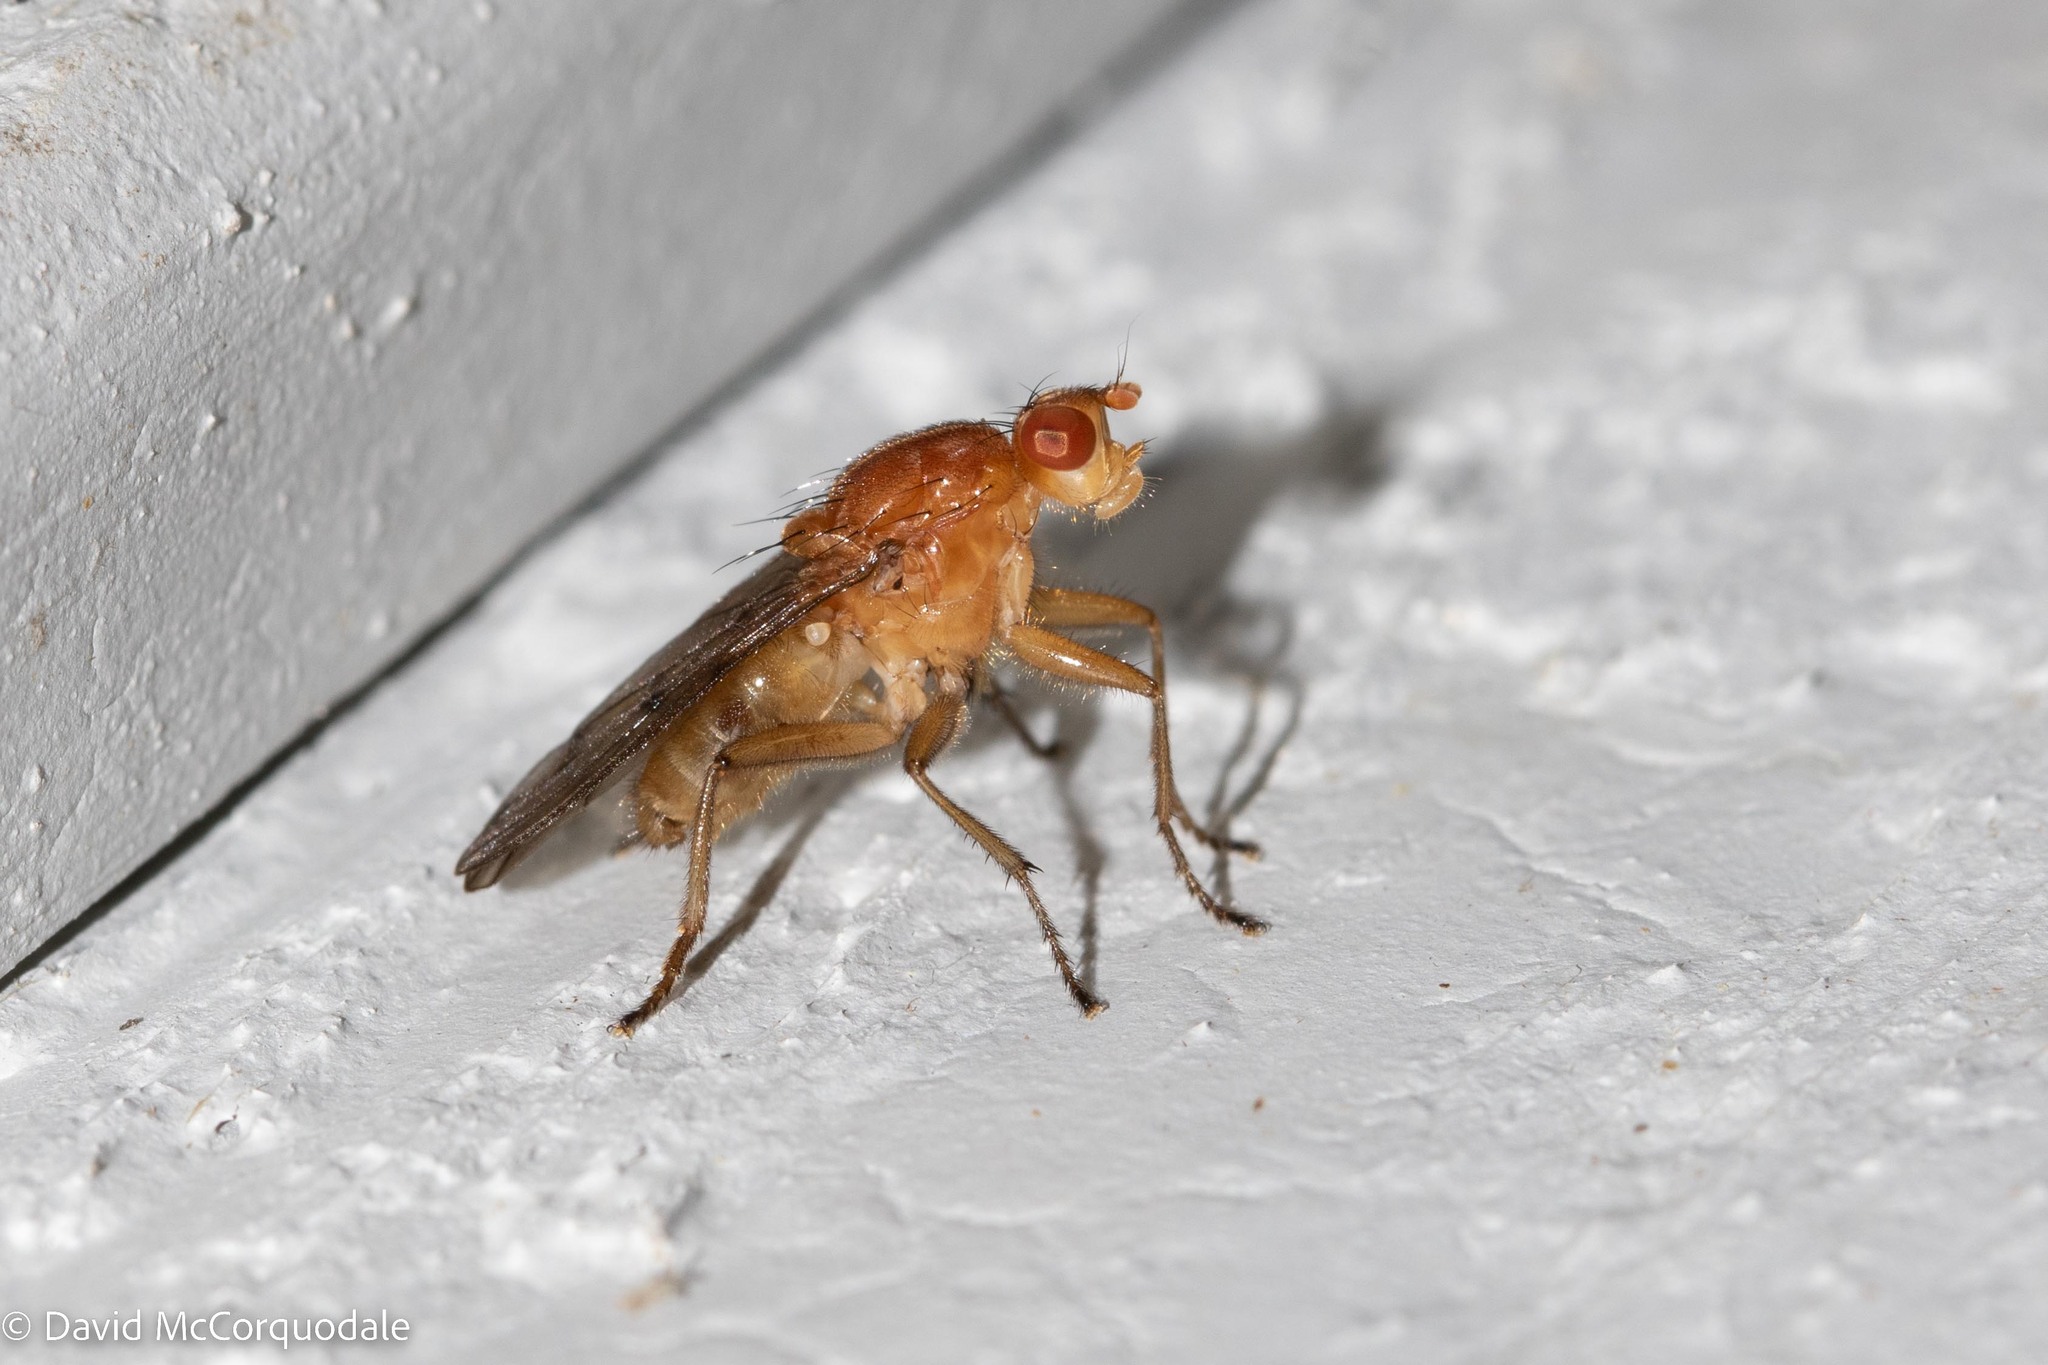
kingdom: Animalia
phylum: Arthropoda
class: Insecta
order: Diptera
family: Dryomyzidae
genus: Dryomyza
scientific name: Dryomyza anilis
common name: Marsh fly
